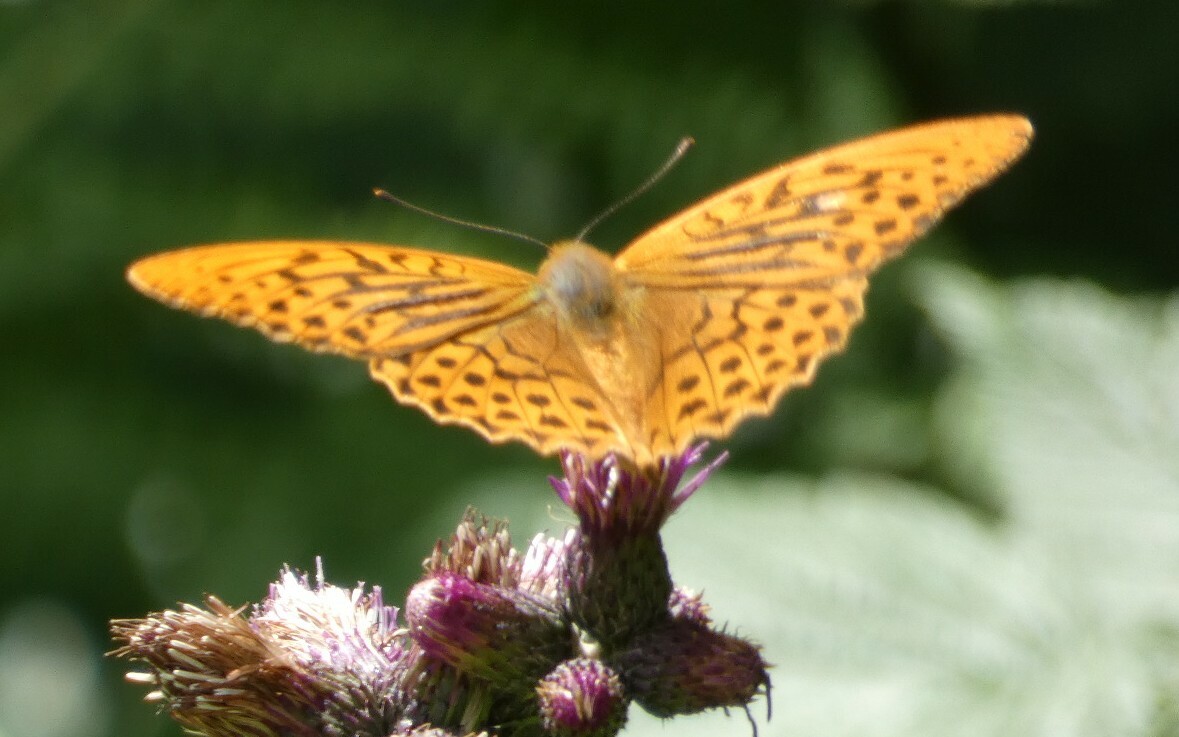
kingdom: Animalia
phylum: Arthropoda
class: Insecta
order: Lepidoptera
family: Nymphalidae
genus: Argynnis
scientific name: Argynnis paphia
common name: Silver-washed fritillary
